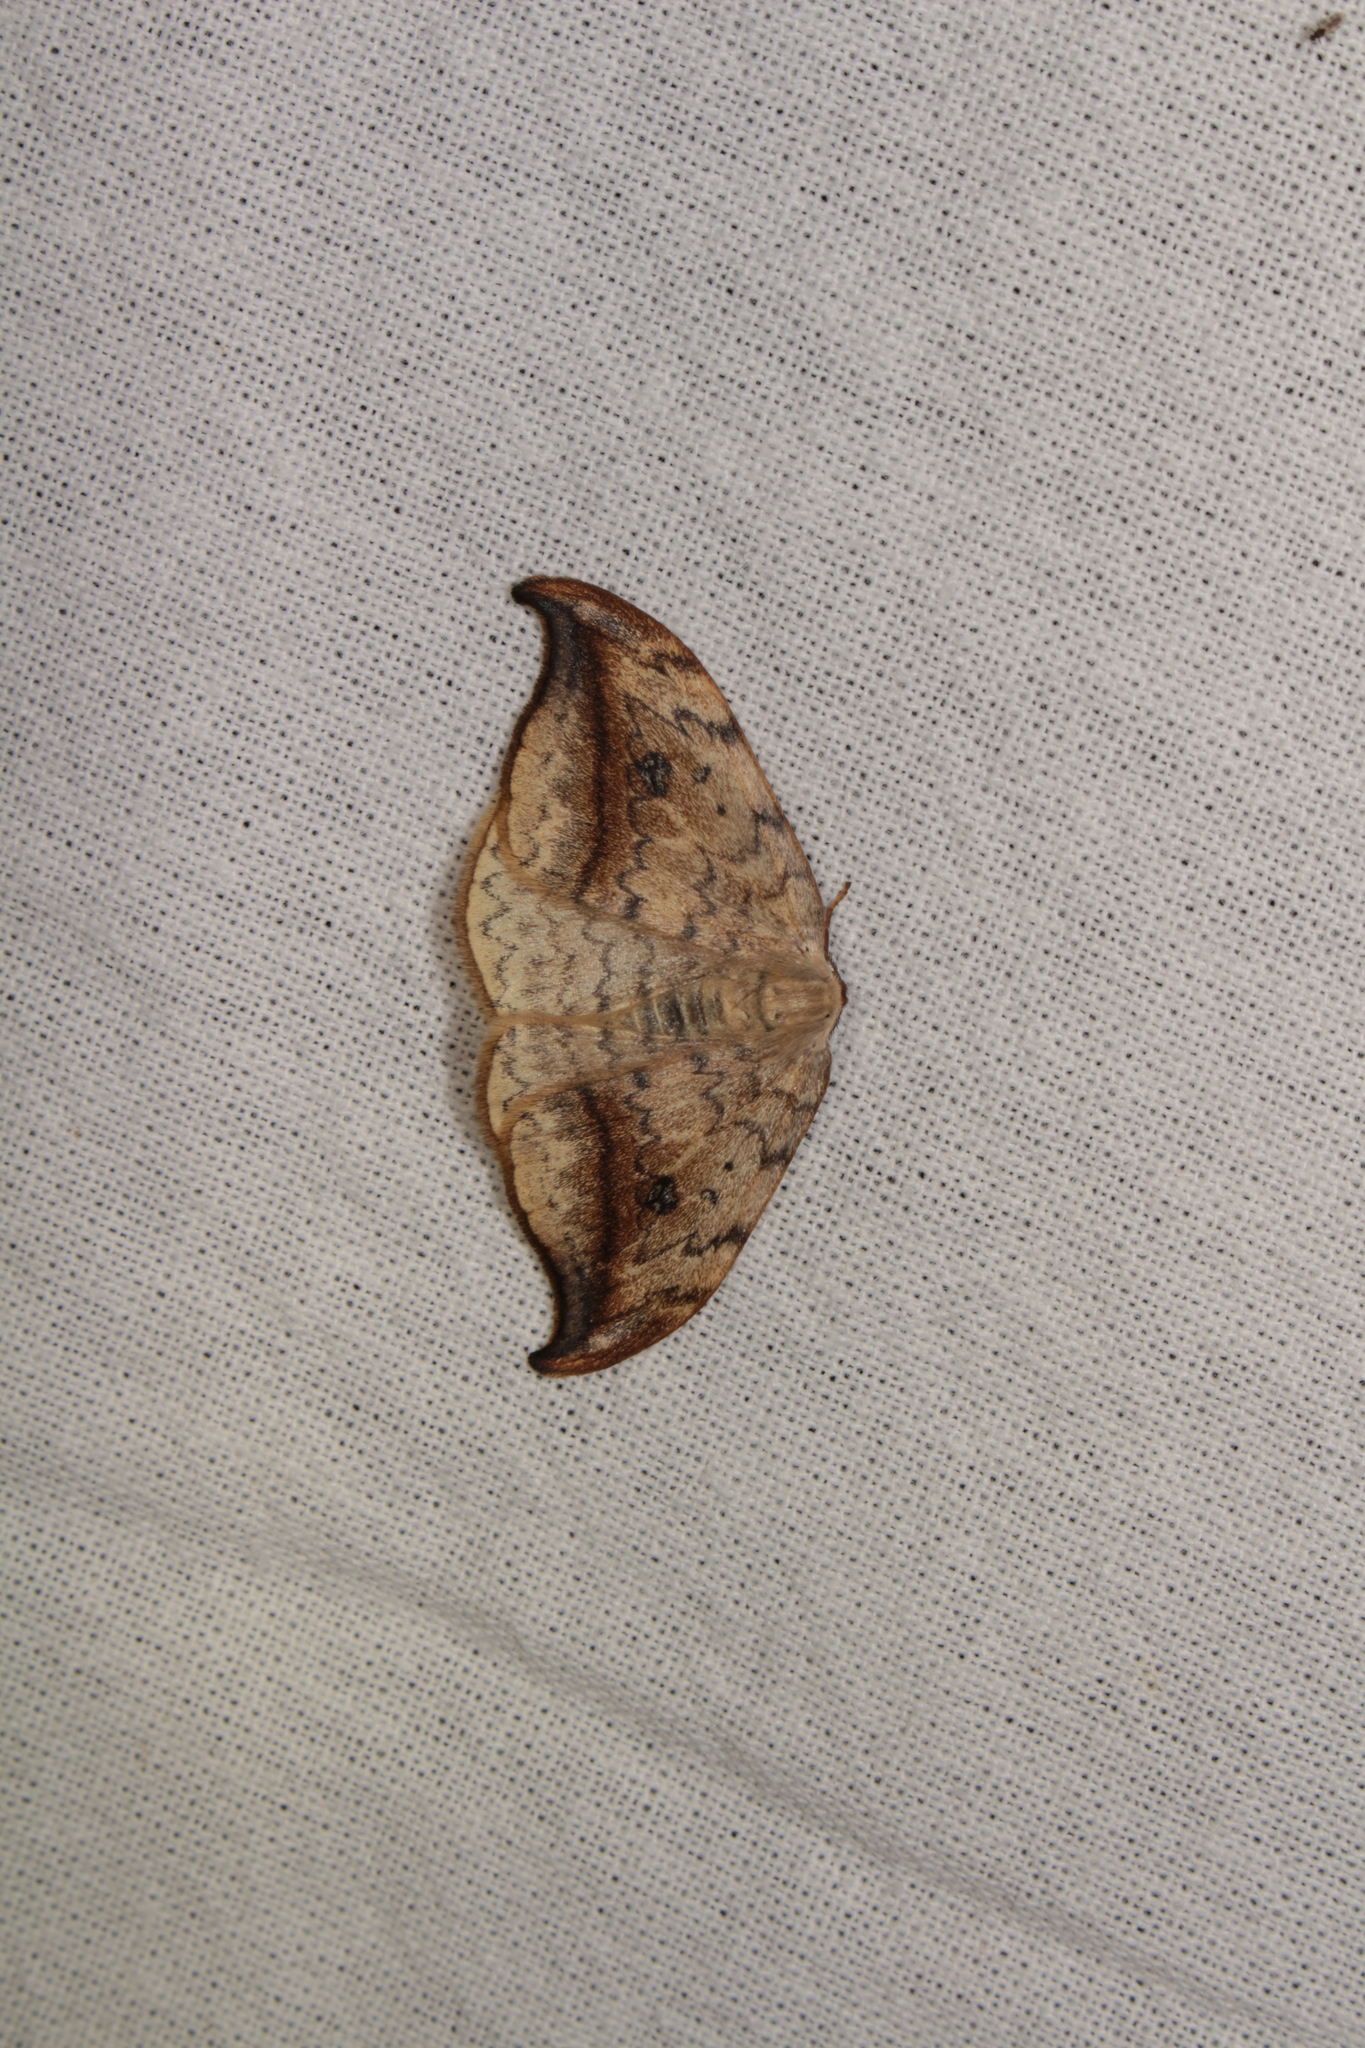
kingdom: Animalia
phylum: Arthropoda
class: Insecta
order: Lepidoptera
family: Drepanidae
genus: Drepana
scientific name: Drepana falcataria
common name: Pebble hook-tip
